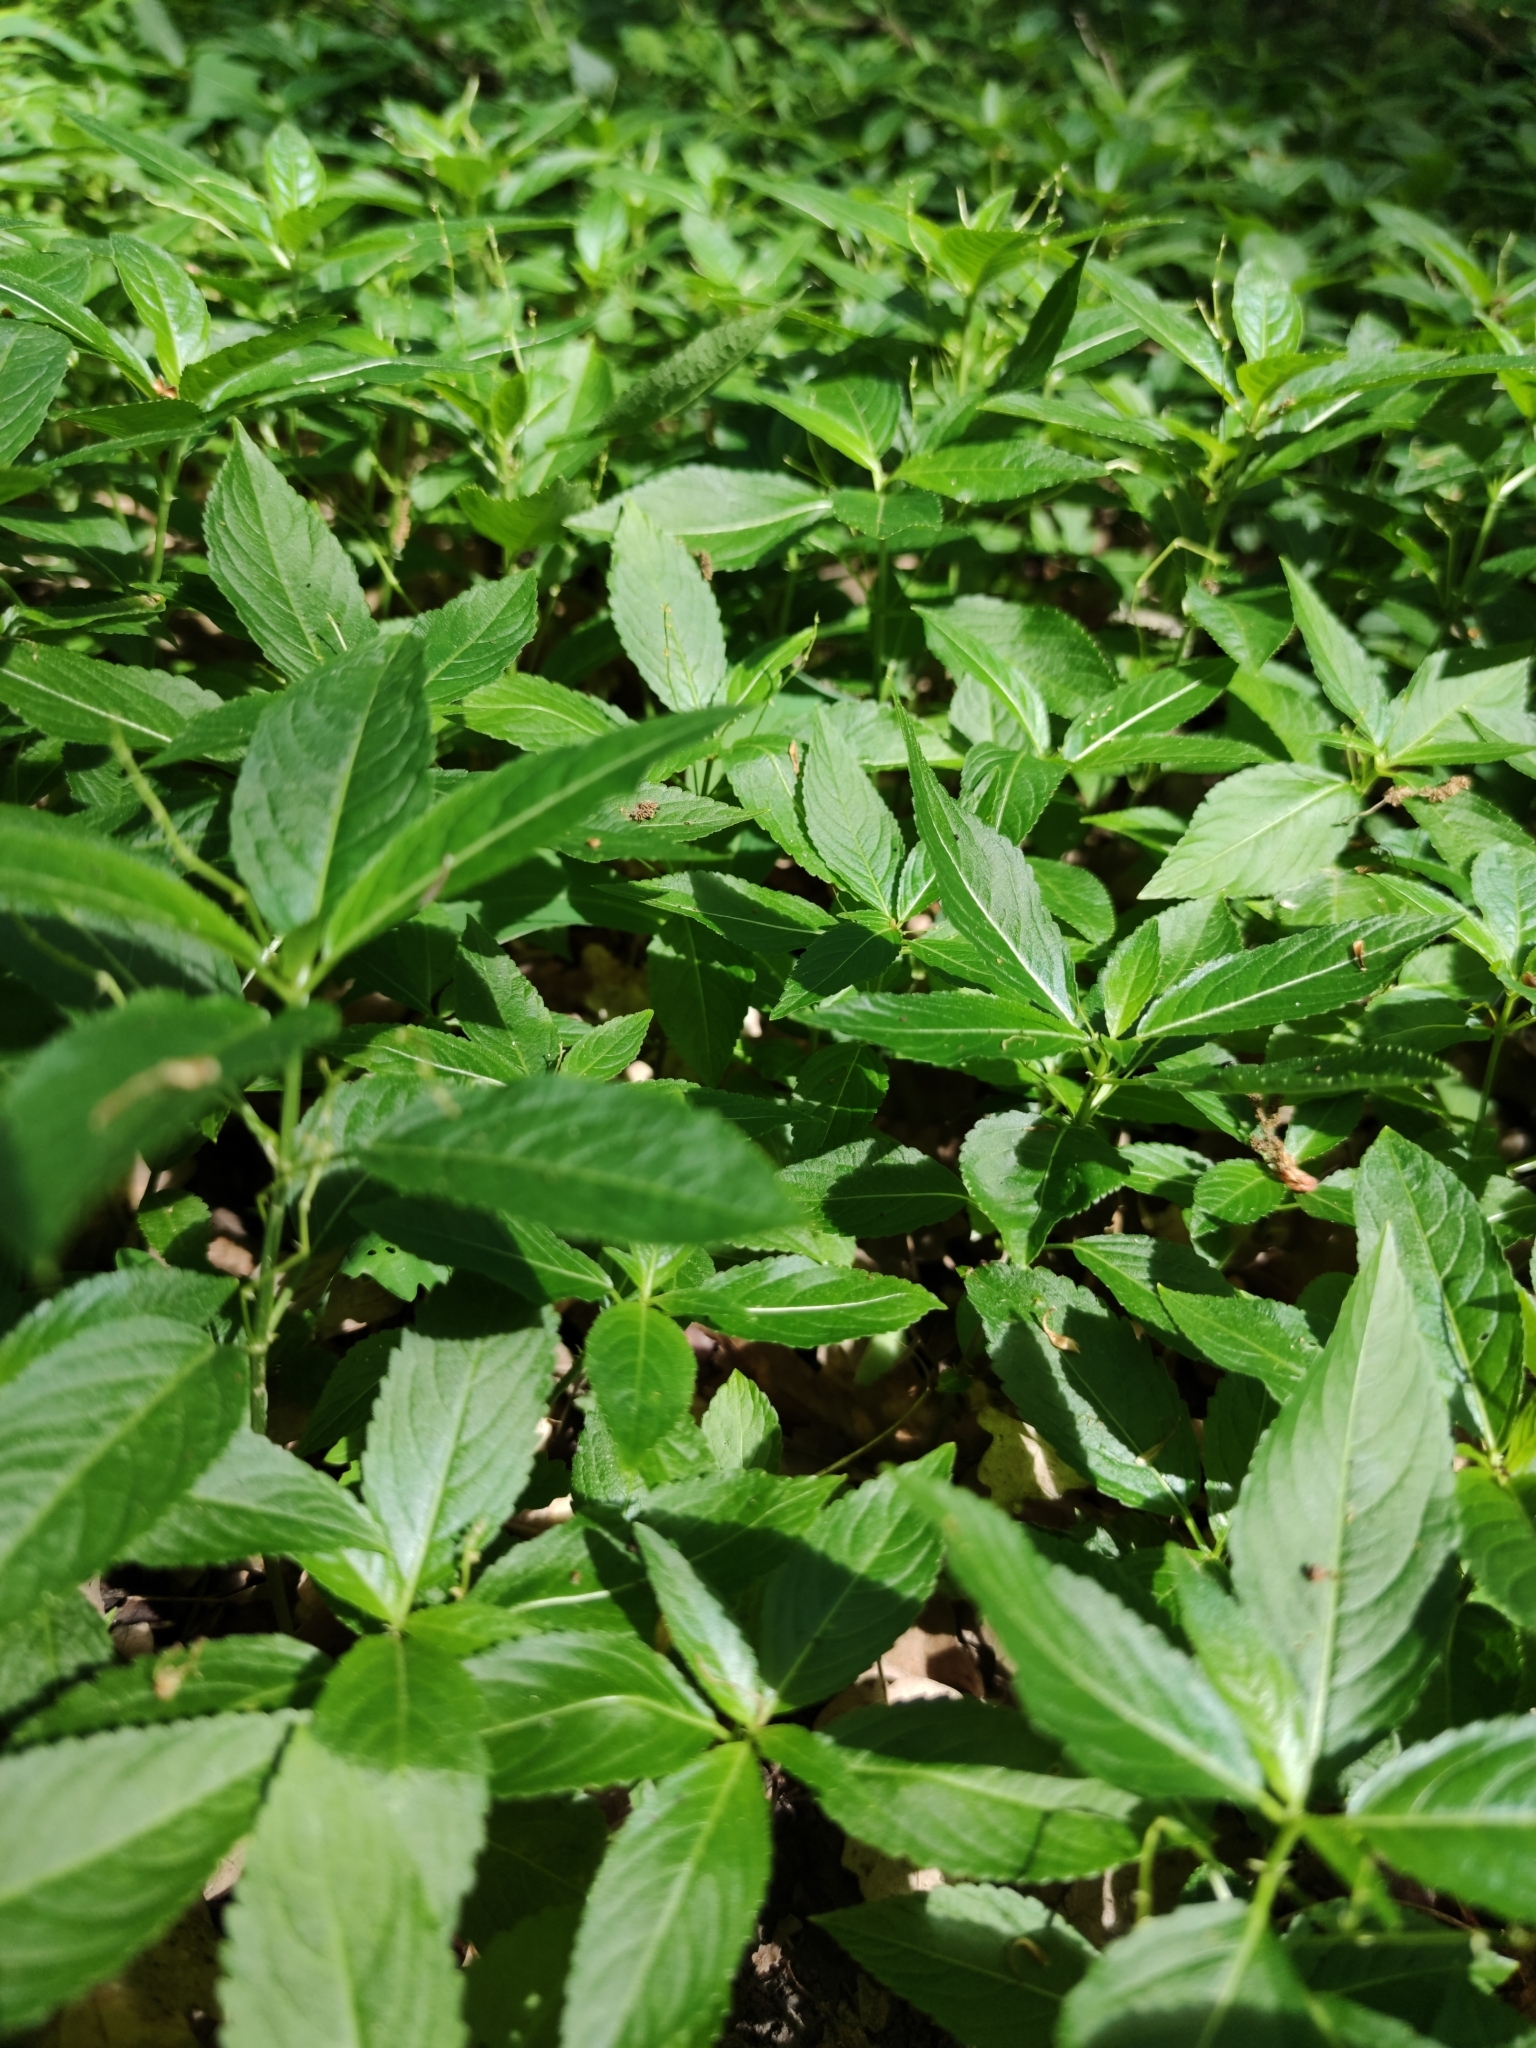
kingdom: Plantae
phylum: Tracheophyta
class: Magnoliopsida
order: Malpighiales
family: Euphorbiaceae
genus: Mercurialis
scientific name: Mercurialis perennis
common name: Dog mercury
